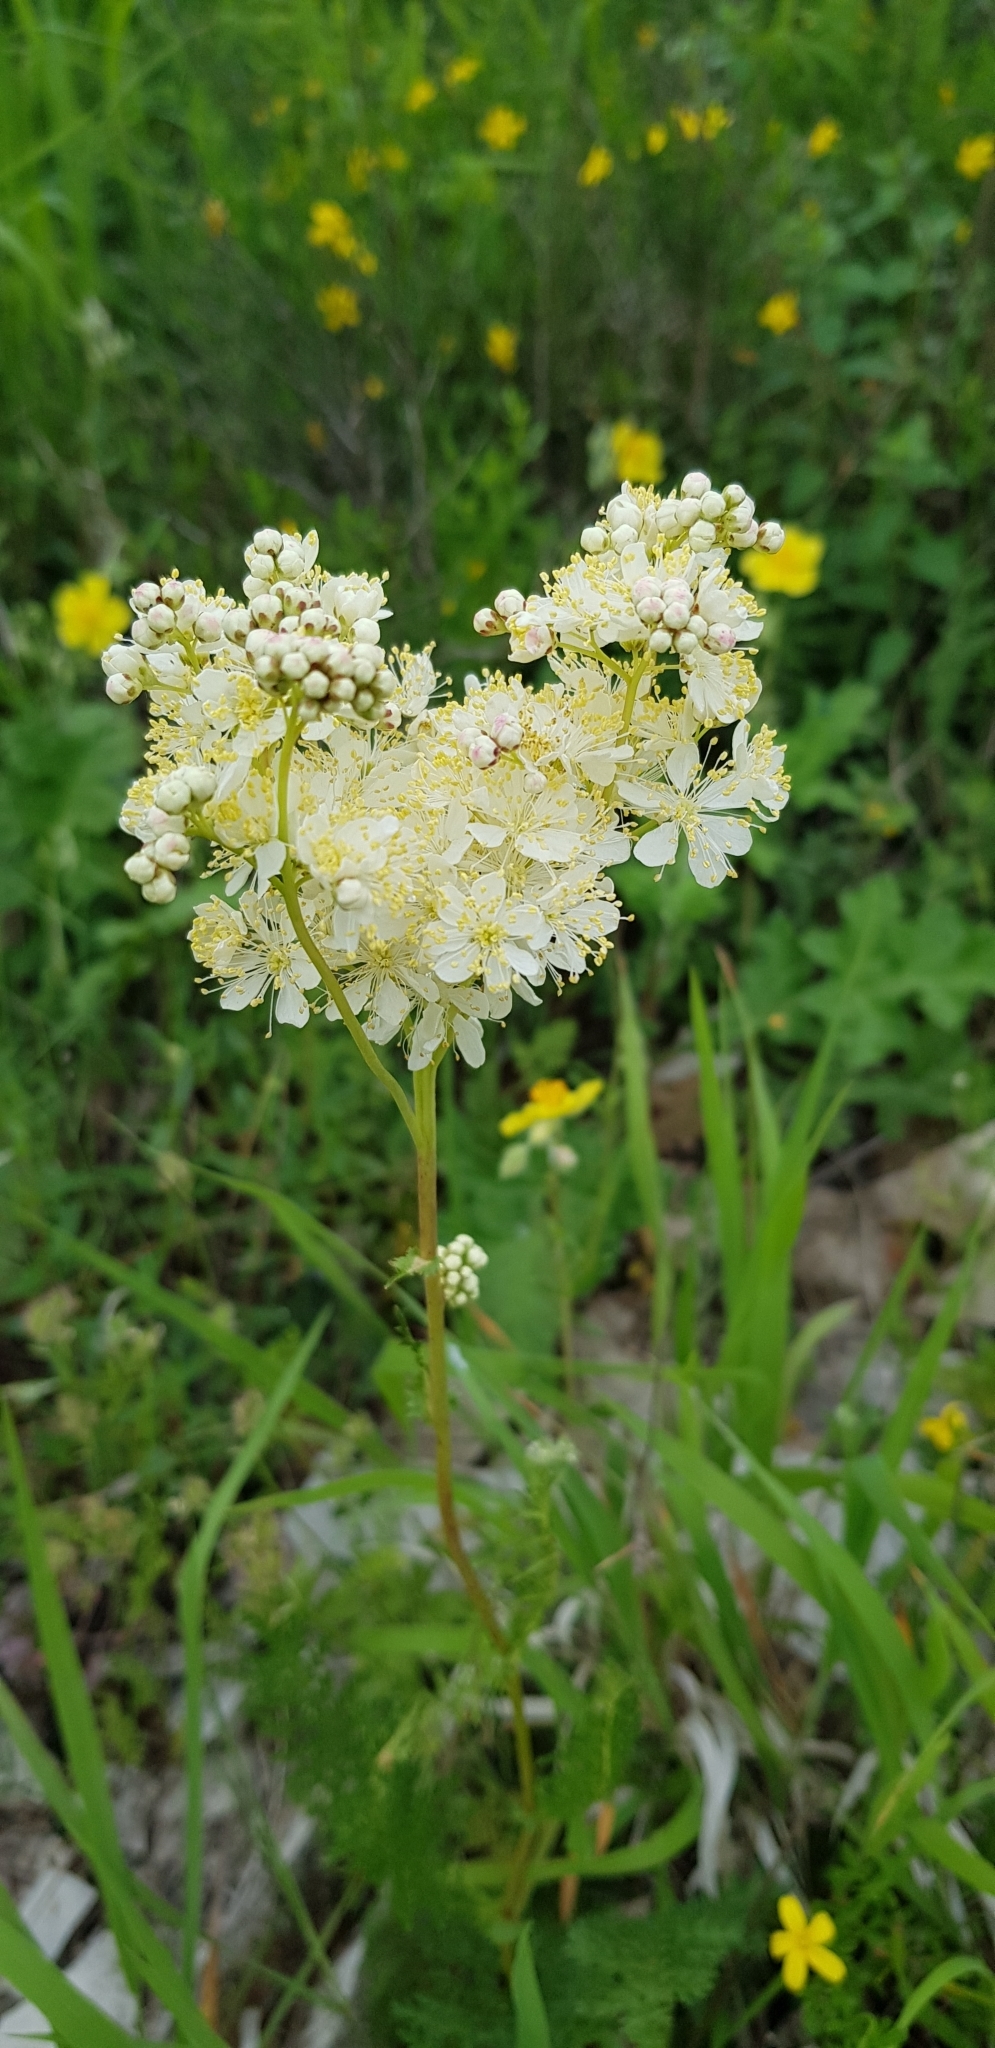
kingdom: Plantae
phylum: Tracheophyta
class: Magnoliopsida
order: Rosales
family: Rosaceae
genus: Filipendula
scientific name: Filipendula vulgaris
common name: Dropwort
